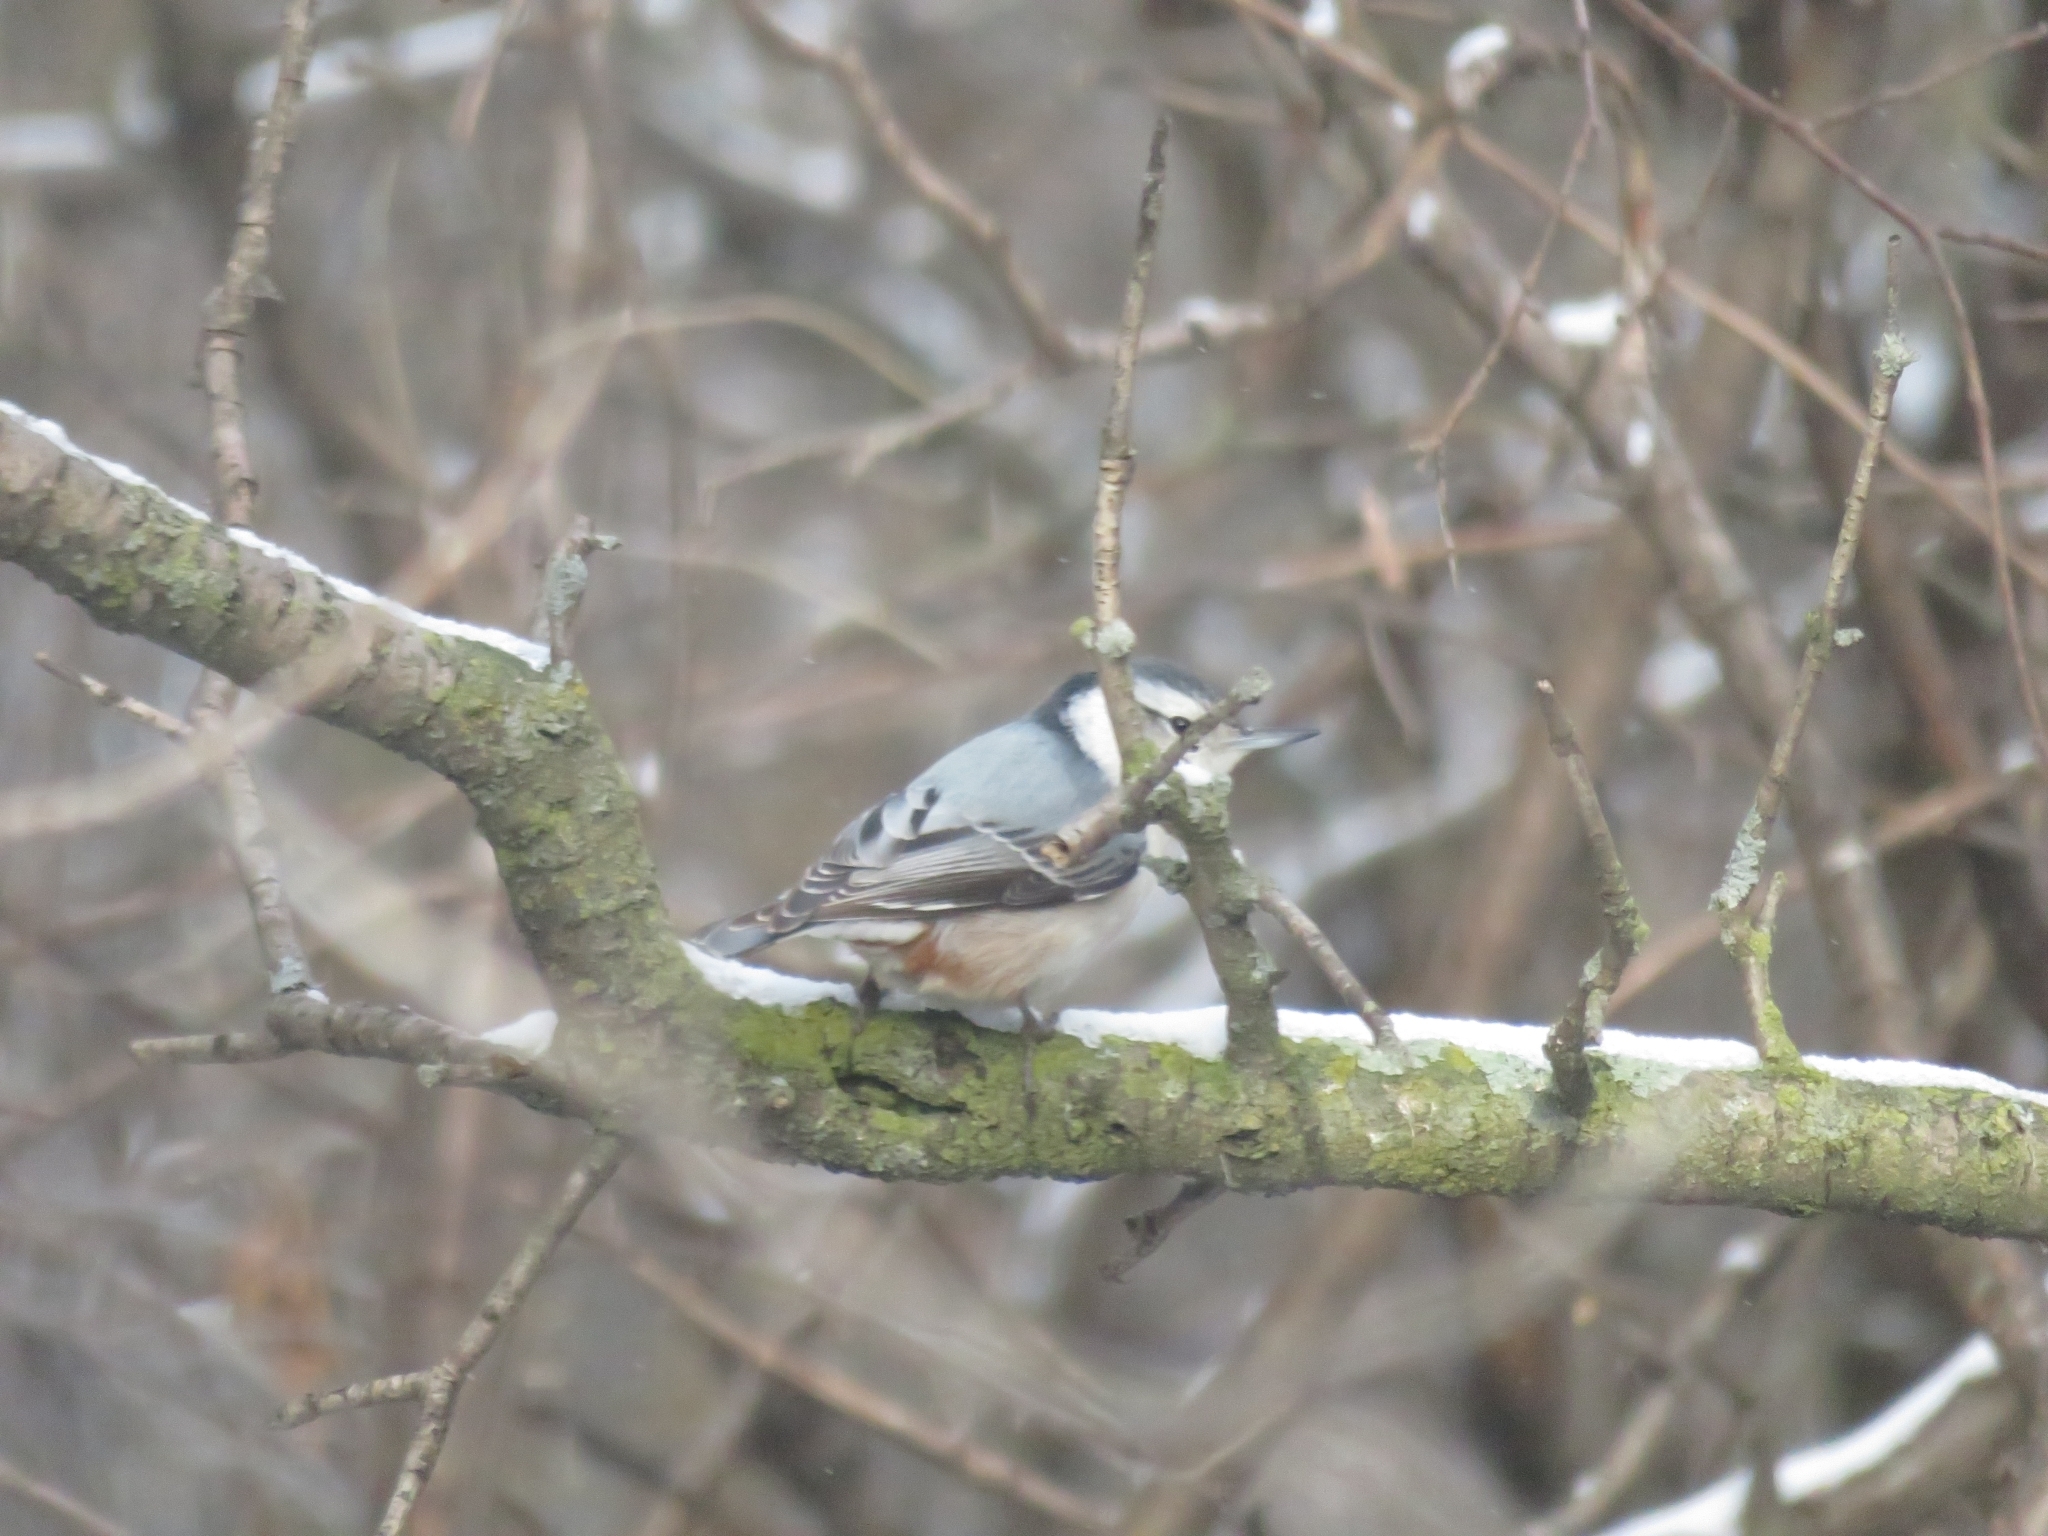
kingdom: Animalia
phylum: Chordata
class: Aves
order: Passeriformes
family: Sittidae
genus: Sitta
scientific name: Sitta carolinensis
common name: White-breasted nuthatch
